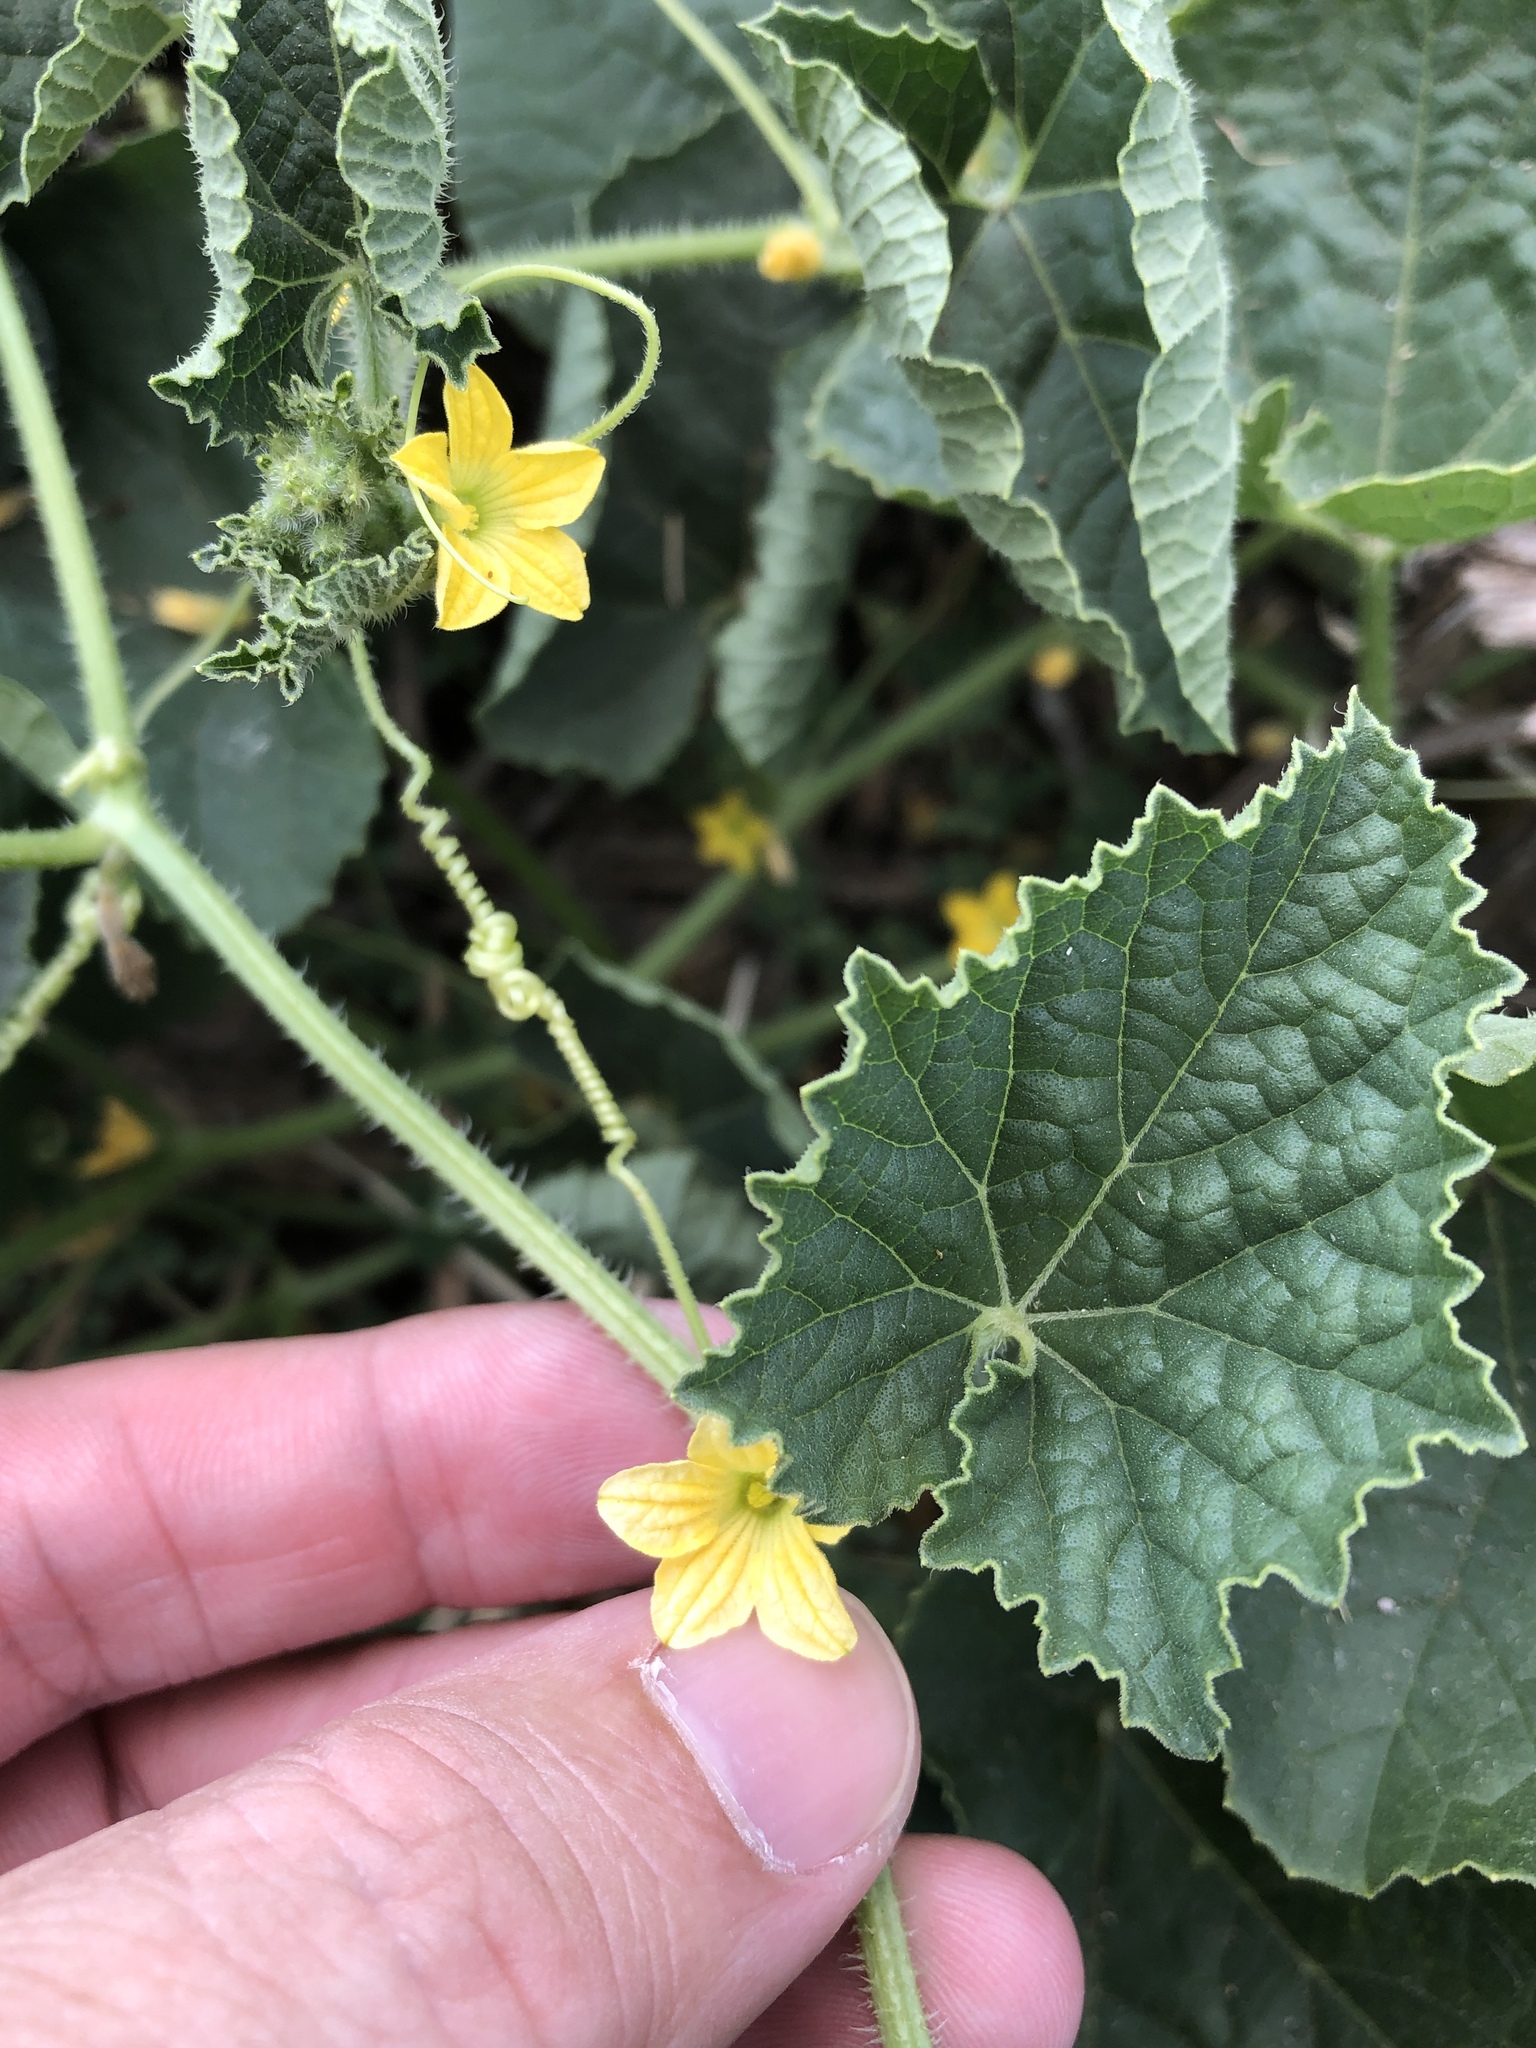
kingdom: Plantae
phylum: Tracheophyta
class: Magnoliopsida
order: Cucurbitales
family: Cucurbitaceae
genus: Cucumis
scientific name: Cucumis melo
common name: Melon
